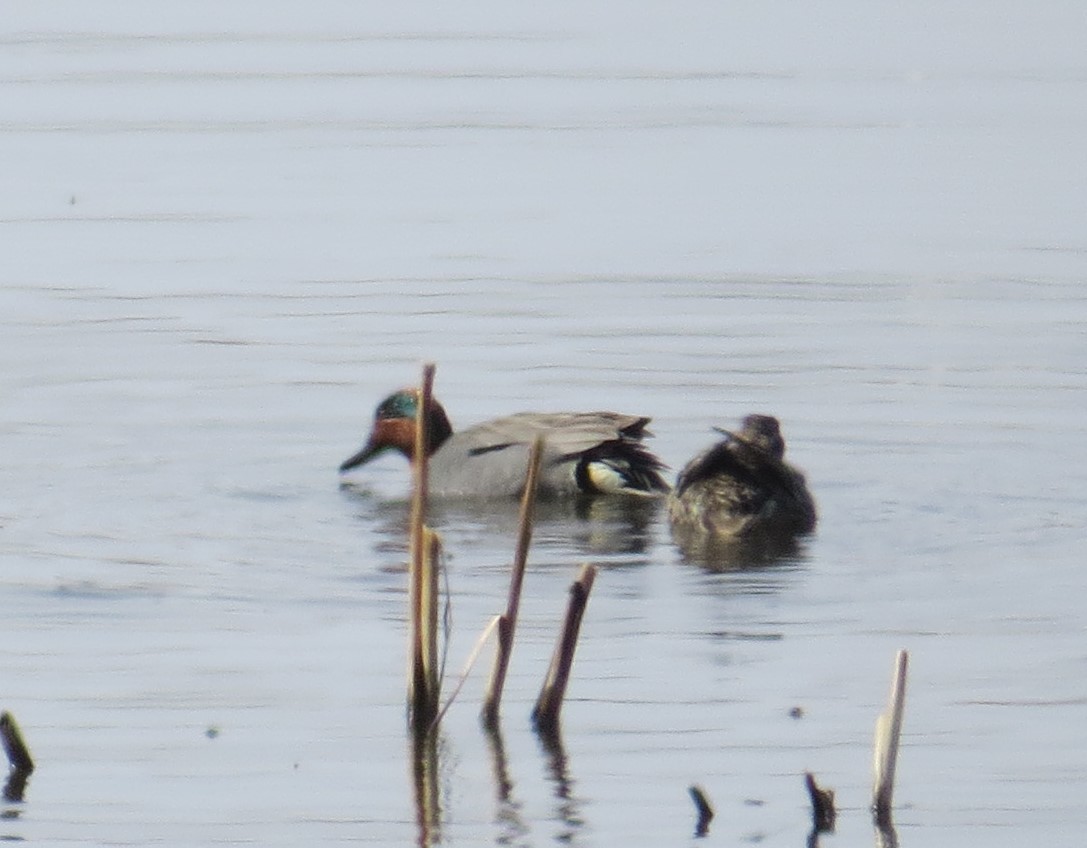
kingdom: Animalia
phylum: Chordata
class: Aves
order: Anseriformes
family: Anatidae
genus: Anas
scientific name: Anas crecca
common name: Eurasian teal
